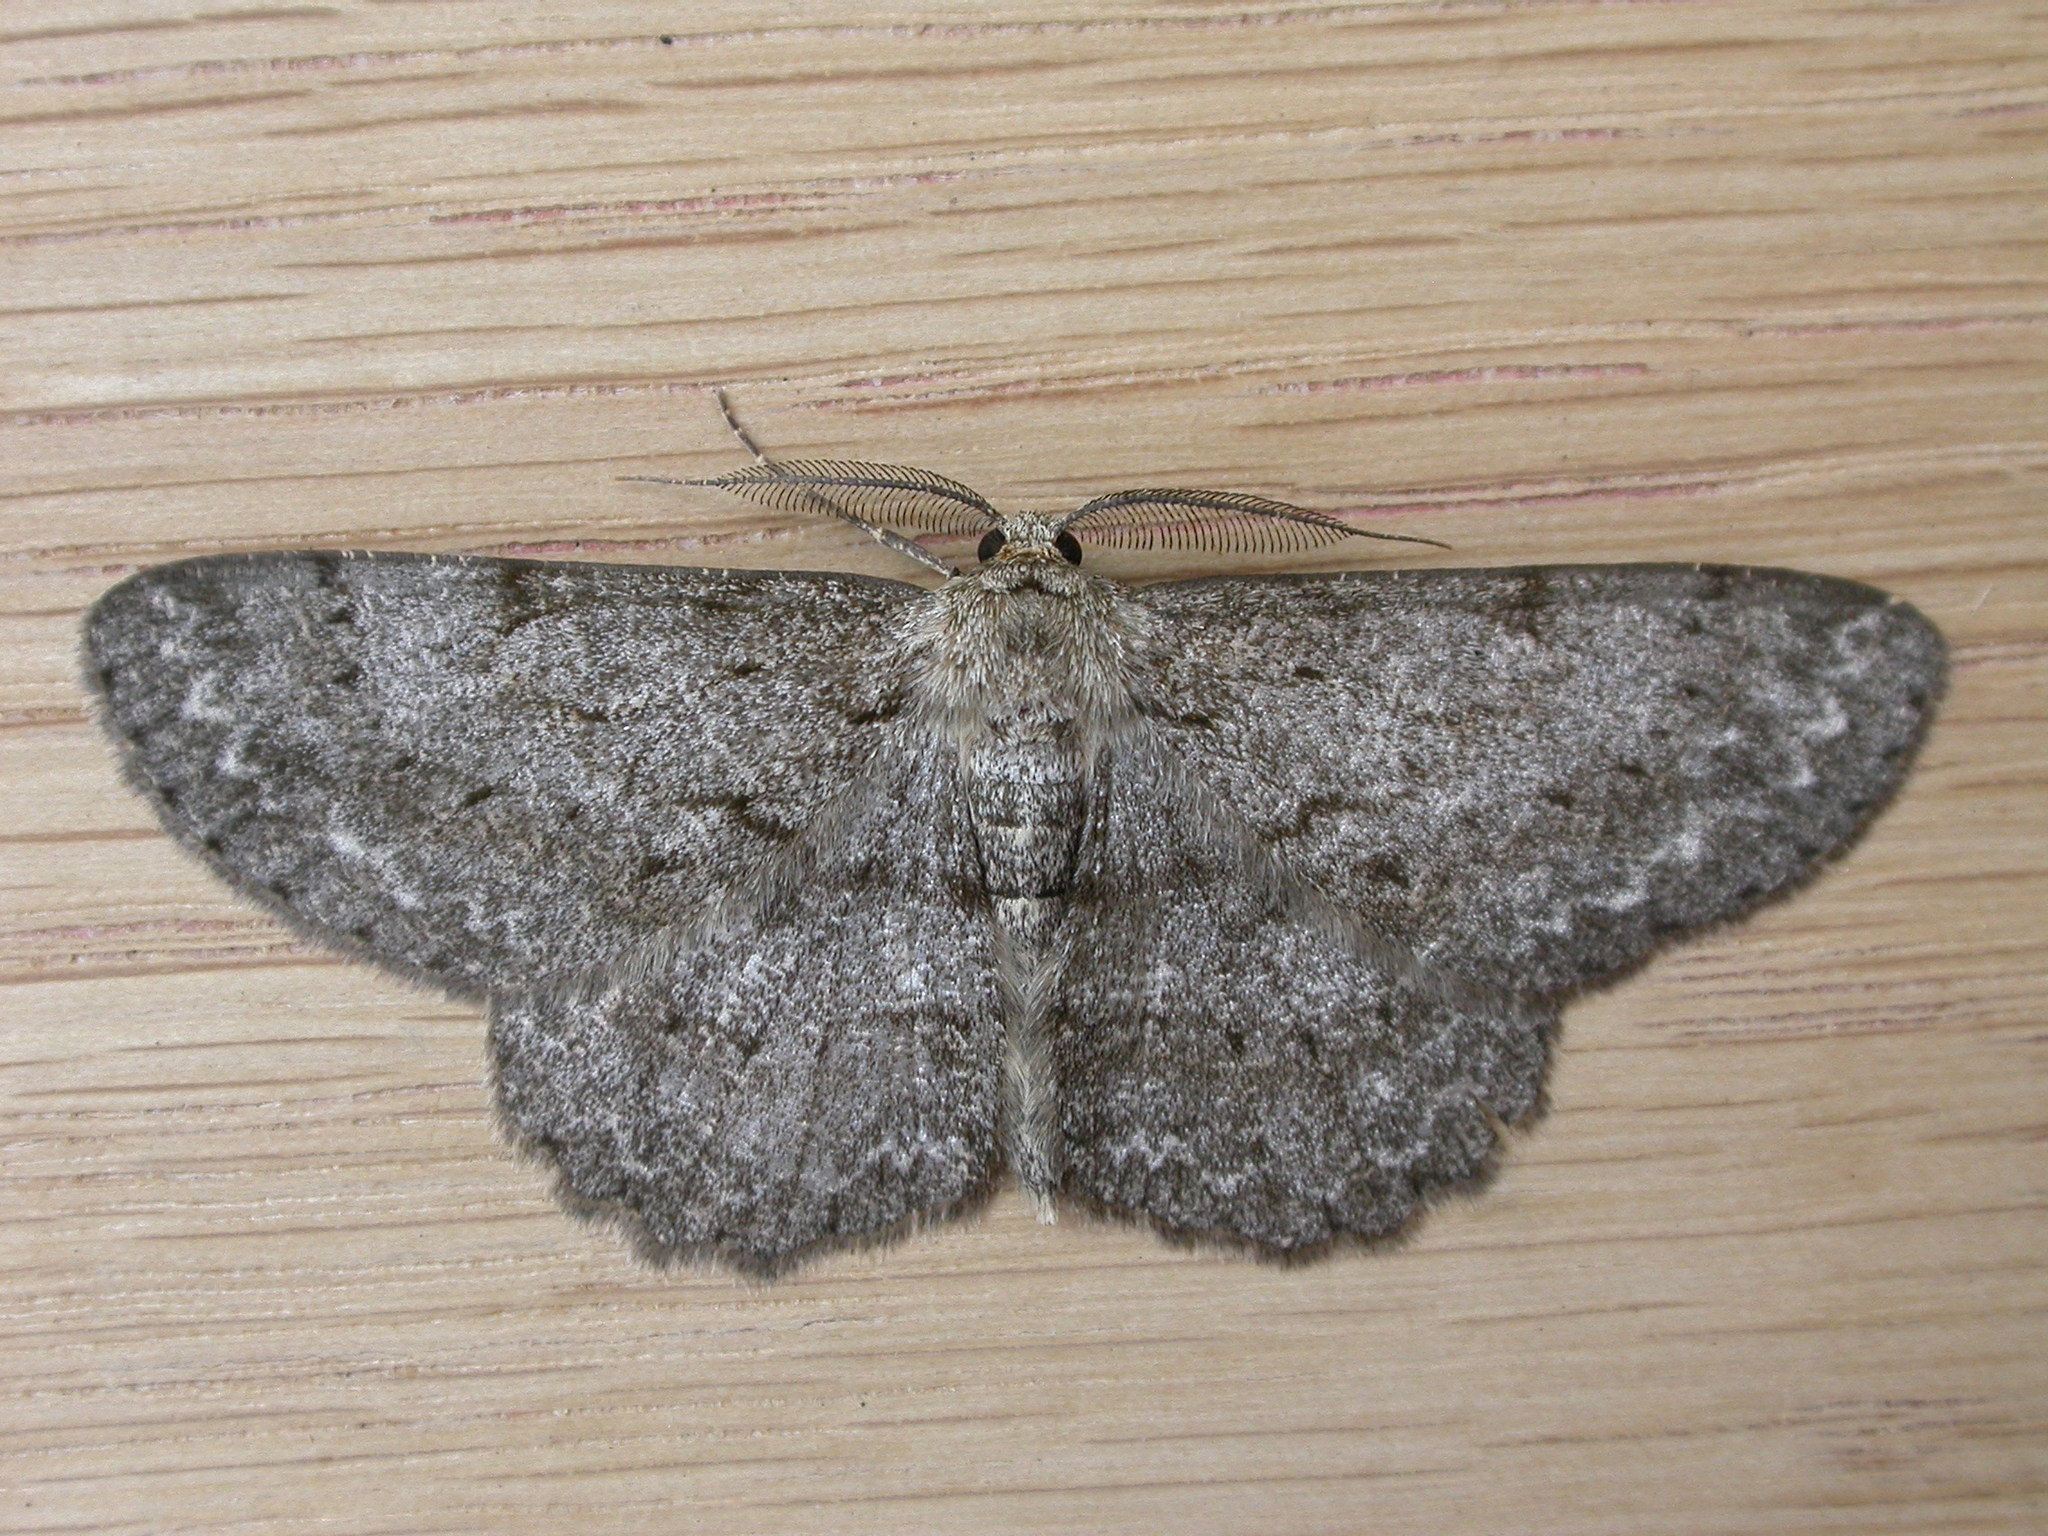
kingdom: Animalia
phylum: Arthropoda
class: Insecta
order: Lepidoptera
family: Geometridae
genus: Hypomecis
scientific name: Hypomecis punctinalis
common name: Pale oak beauty
